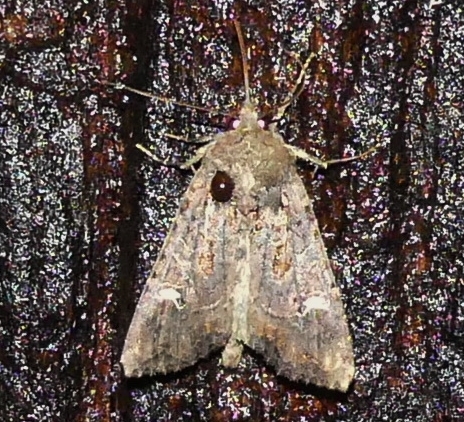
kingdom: Animalia
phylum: Arthropoda
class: Insecta
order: Lepidoptera
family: Noctuidae
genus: Helotropha
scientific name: Helotropha reniformis
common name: Kidney-spotted rustic moth
